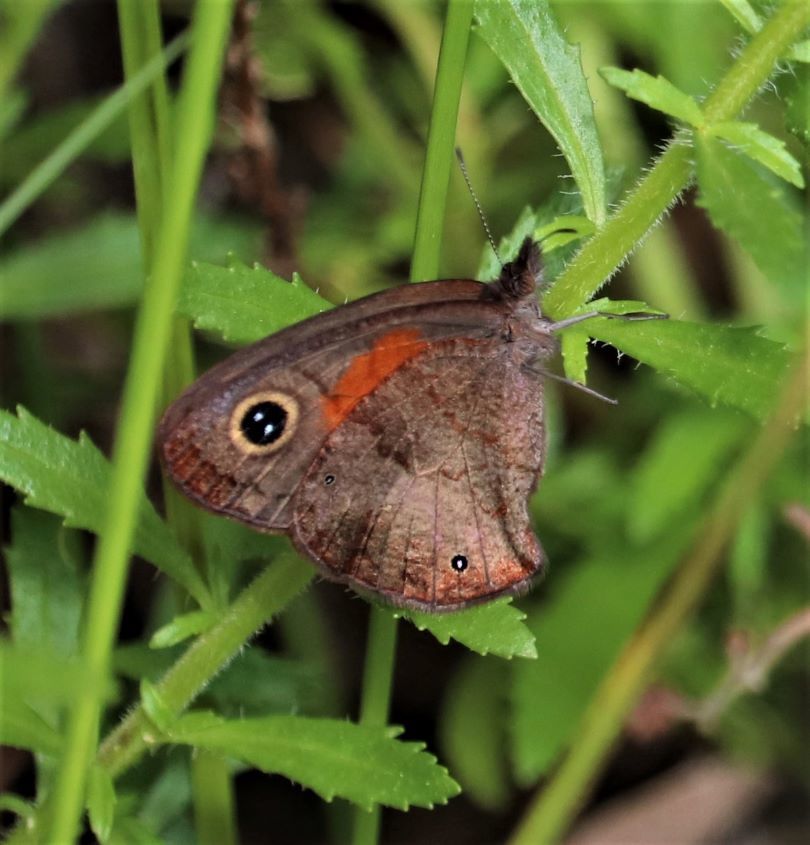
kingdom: Animalia
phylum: Arthropoda
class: Insecta
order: Lepidoptera
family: Nymphalidae
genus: Cassionympha
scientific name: Cassionympha cassius
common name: Rainforest brown
